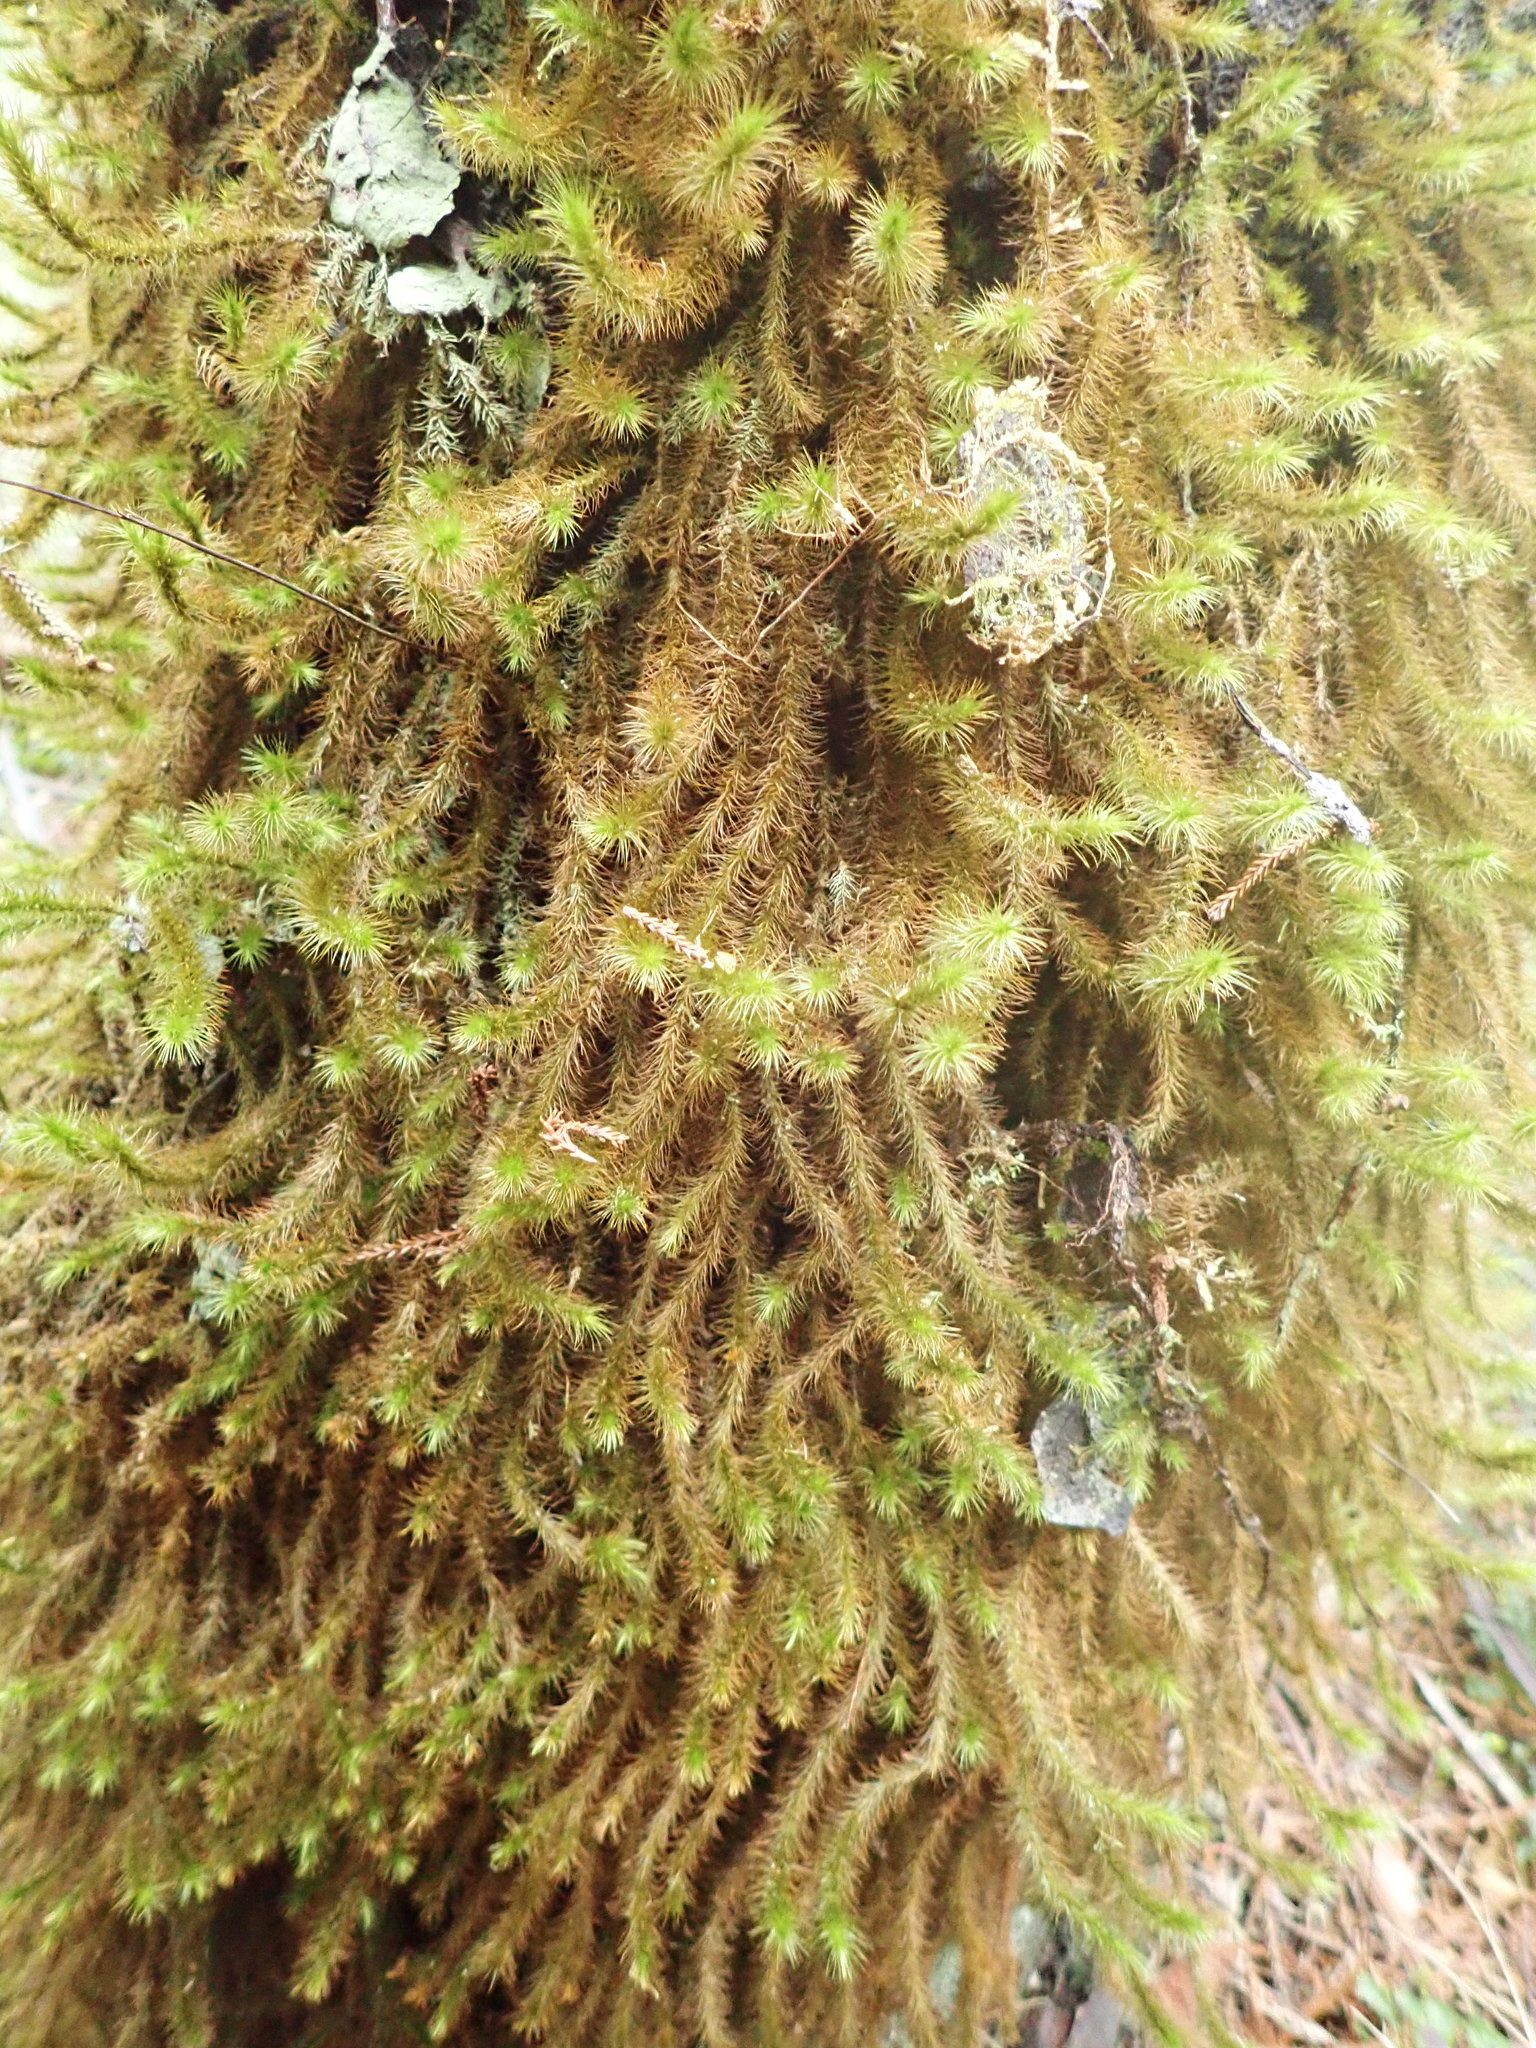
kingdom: Plantae
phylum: Bryophyta
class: Bryopsida
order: Hypnodendrales
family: Spiridentaceae
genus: Cyrtopus
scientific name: Cyrtopus setosus
